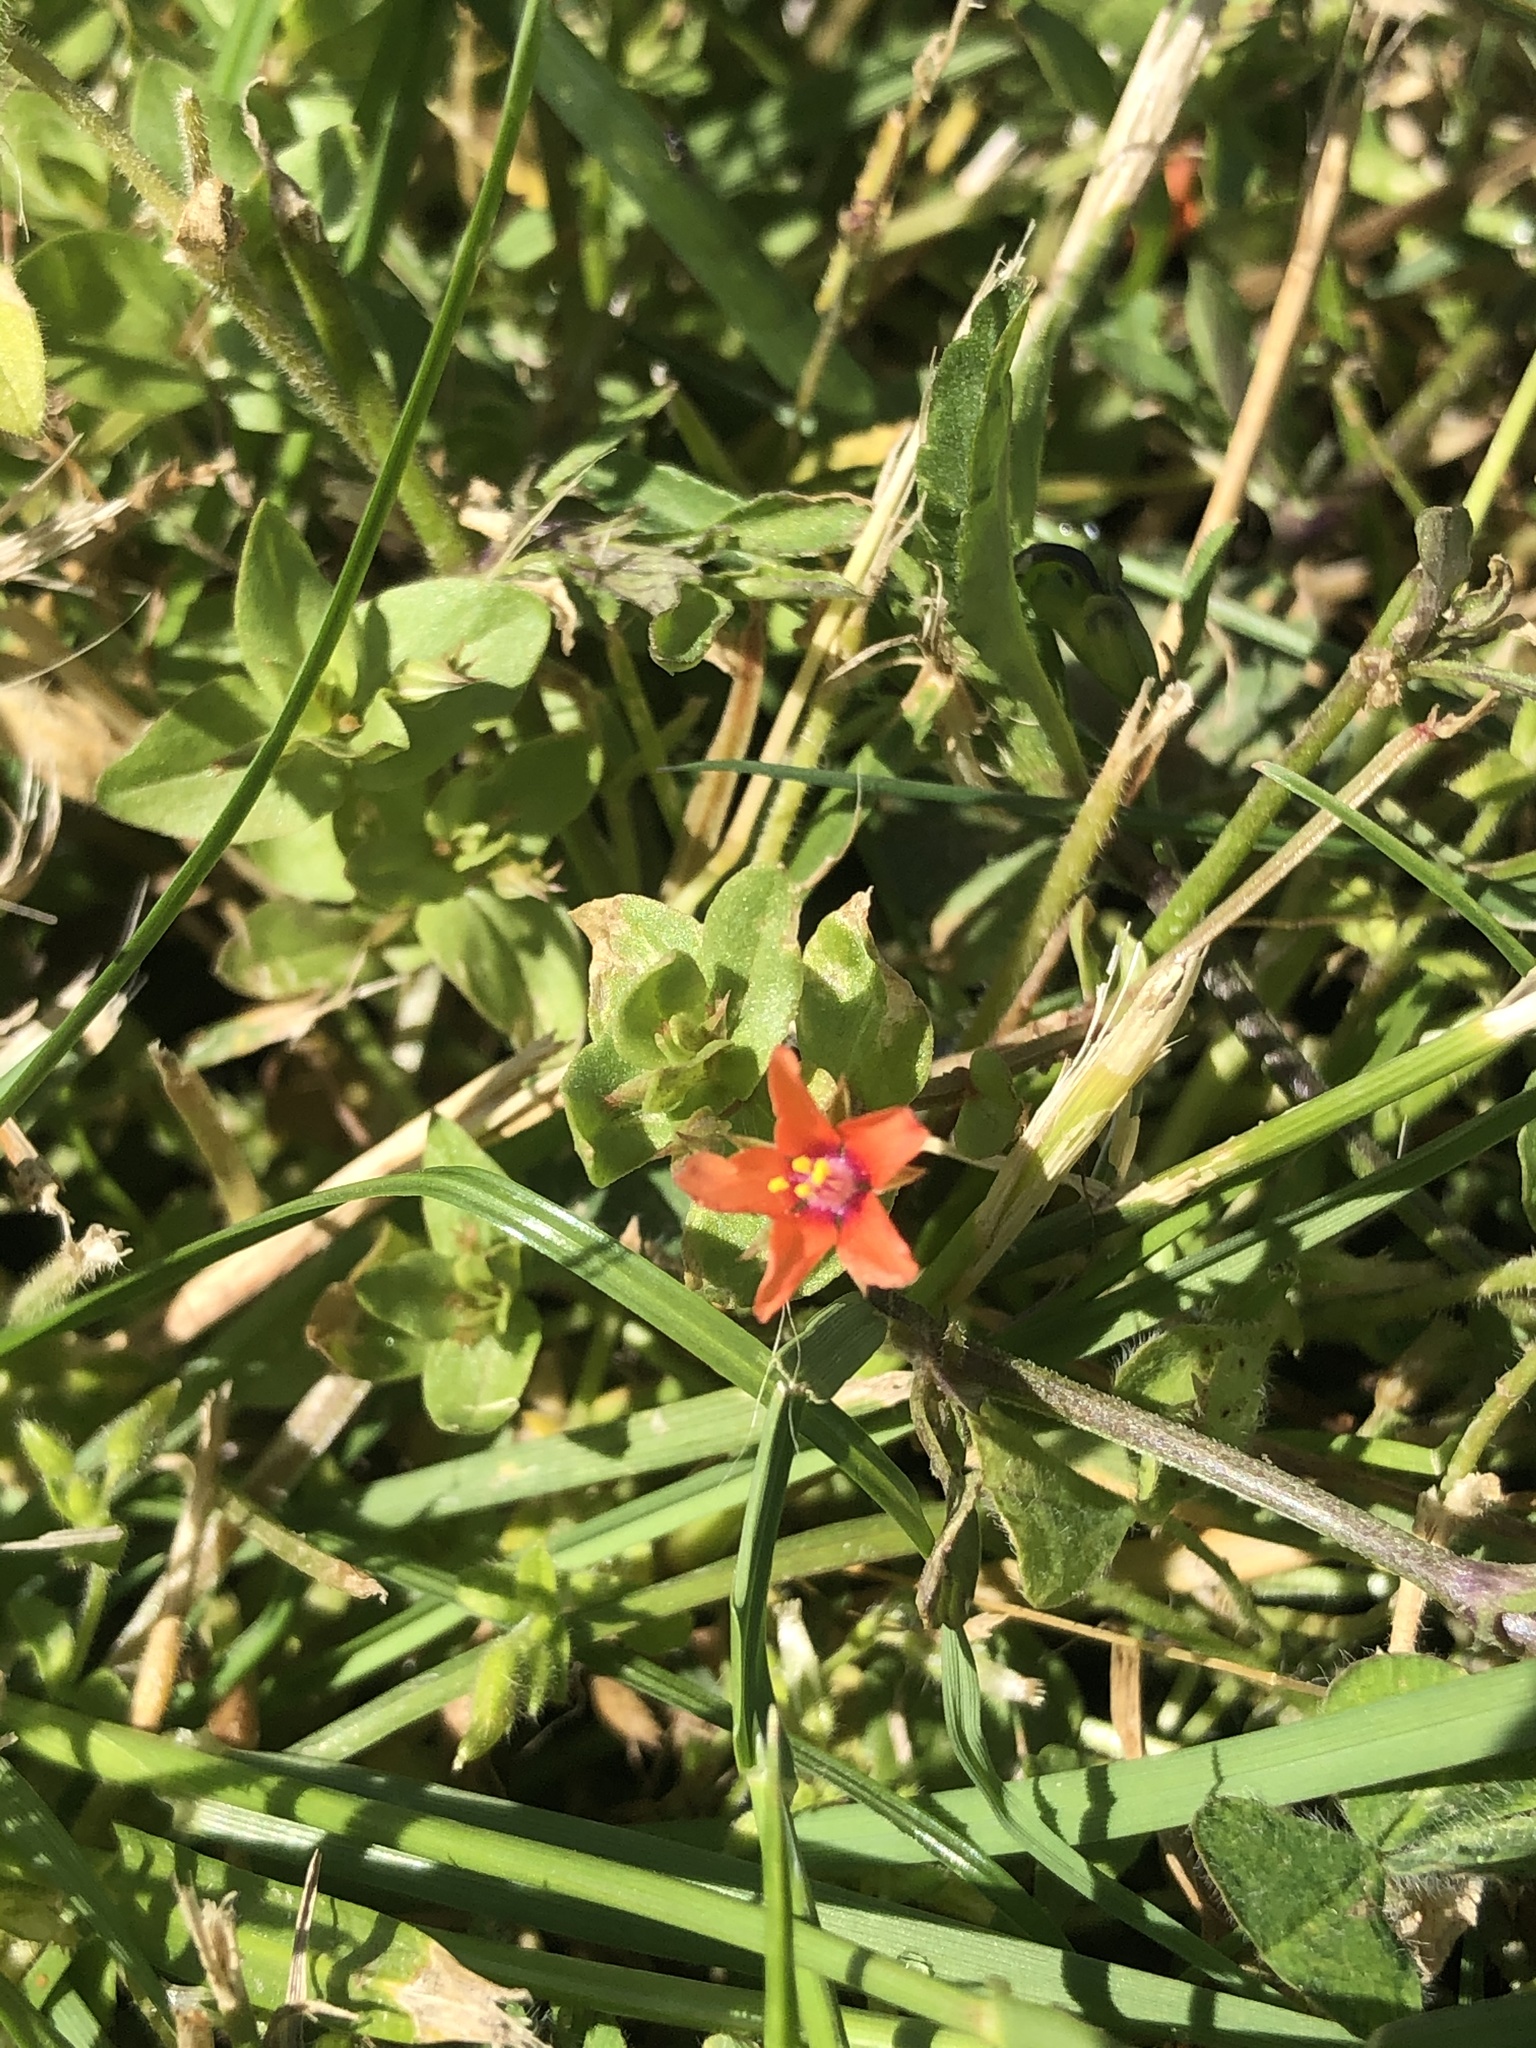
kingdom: Plantae
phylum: Tracheophyta
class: Magnoliopsida
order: Ericales
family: Primulaceae
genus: Lysimachia
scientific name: Lysimachia arvensis
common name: Scarlet pimpernel
